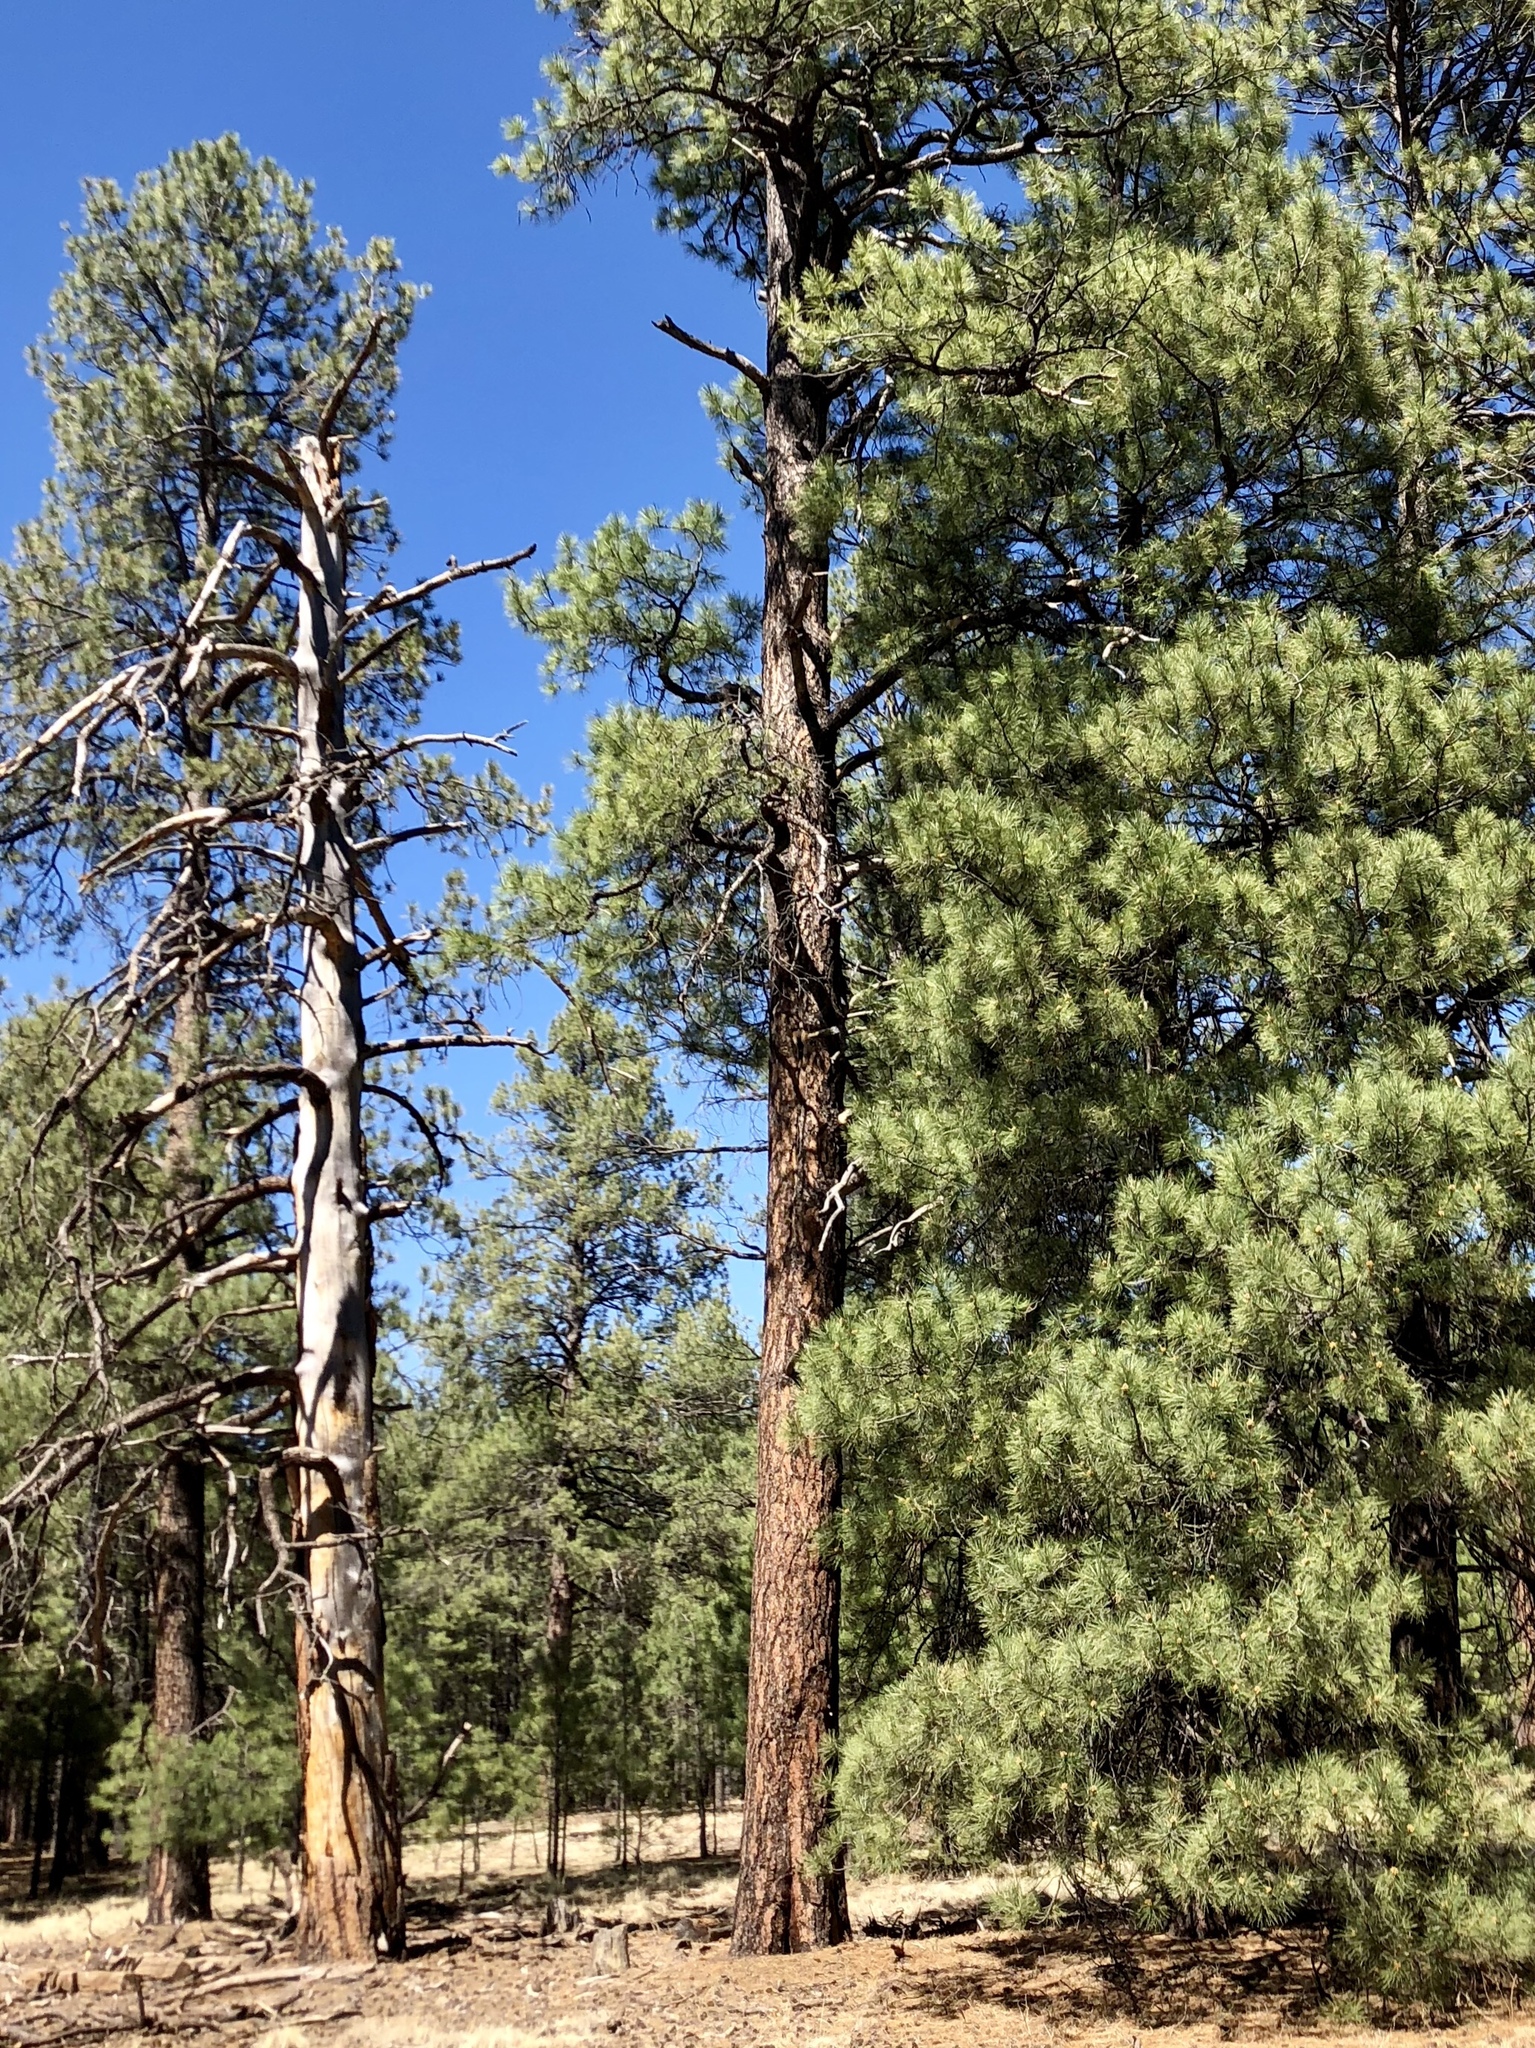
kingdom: Plantae
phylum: Tracheophyta
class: Pinopsida
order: Pinales
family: Pinaceae
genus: Pinus
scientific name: Pinus ponderosa
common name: Western yellow-pine
